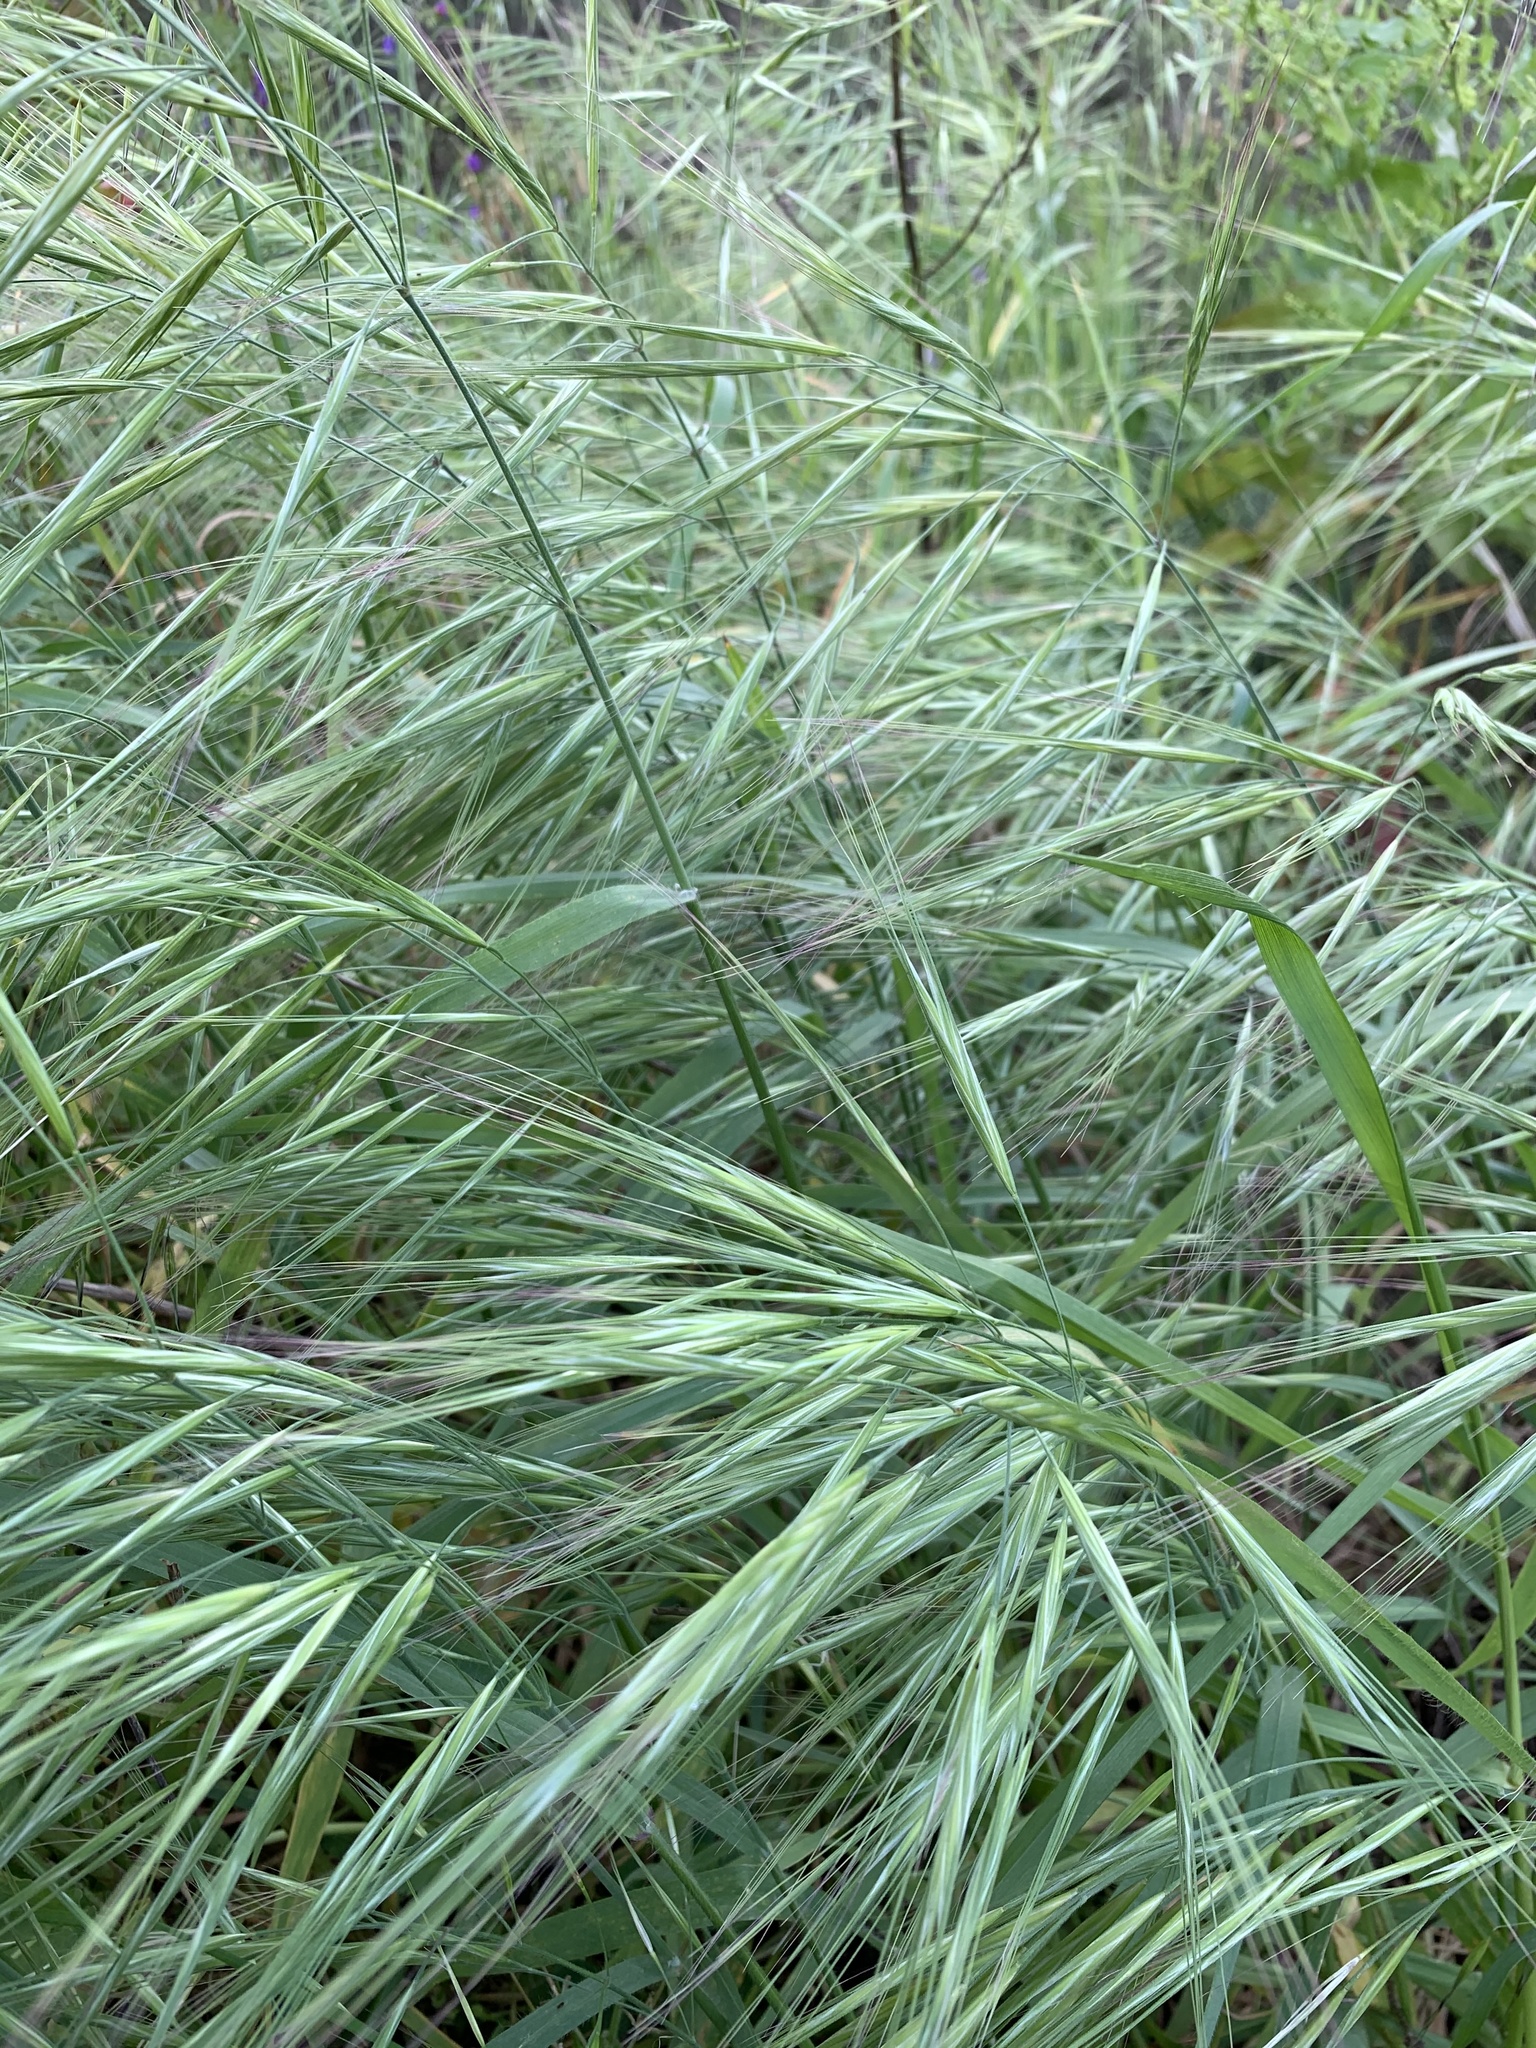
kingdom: Plantae
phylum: Tracheophyta
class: Liliopsida
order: Poales
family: Poaceae
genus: Bromus
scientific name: Bromus diandrus
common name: Ripgut brome
